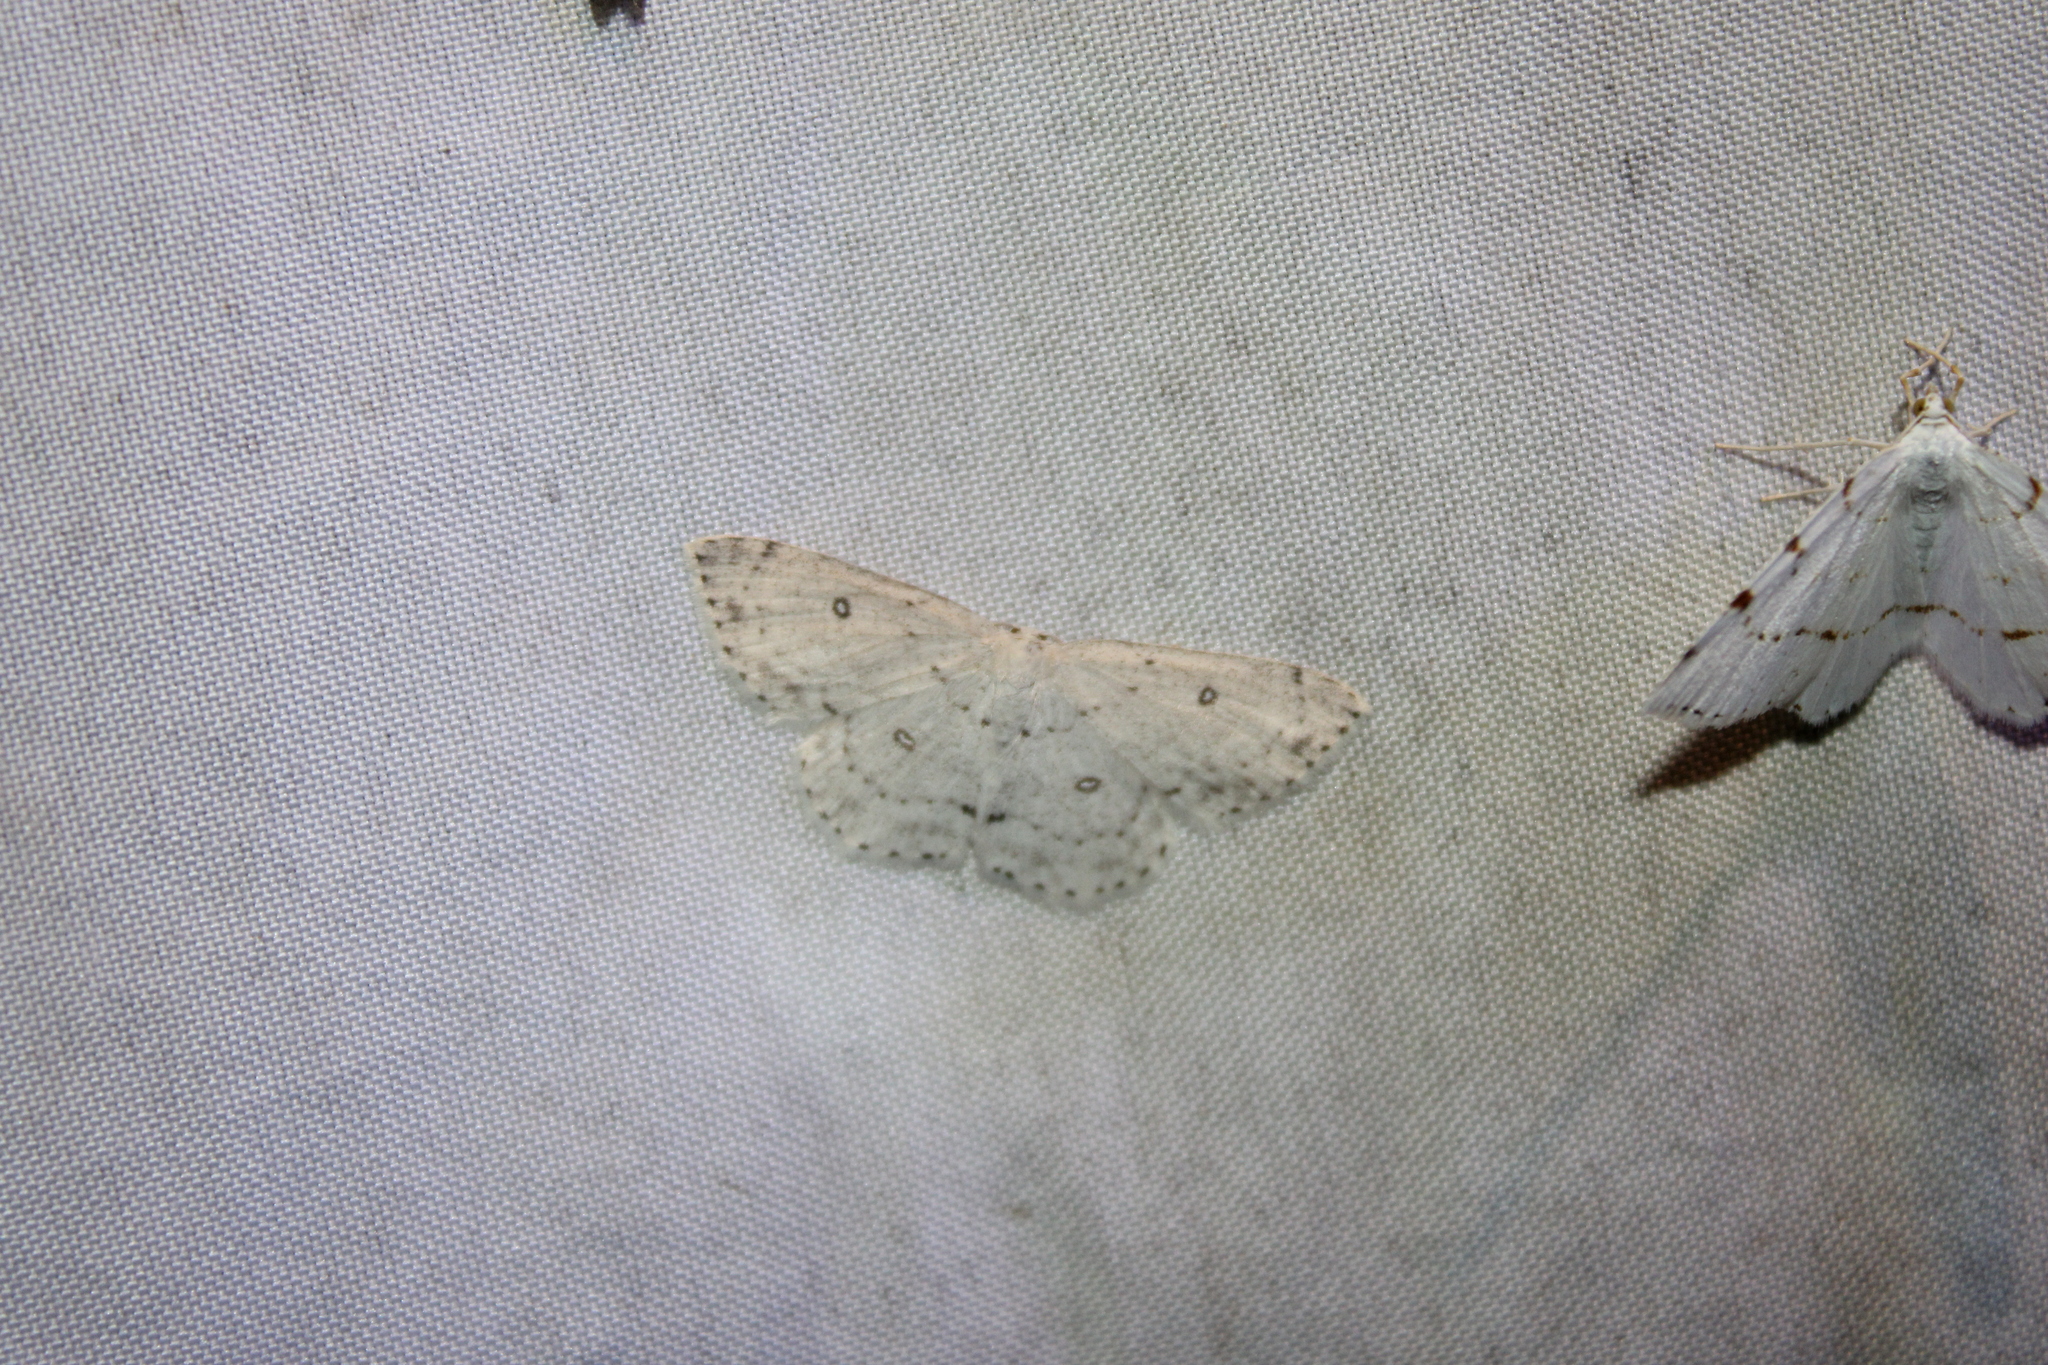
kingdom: Animalia
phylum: Arthropoda
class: Insecta
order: Lepidoptera
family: Geometridae
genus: Cyclophora
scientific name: Cyclophora pendulinaria
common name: Sweet fern geometer
